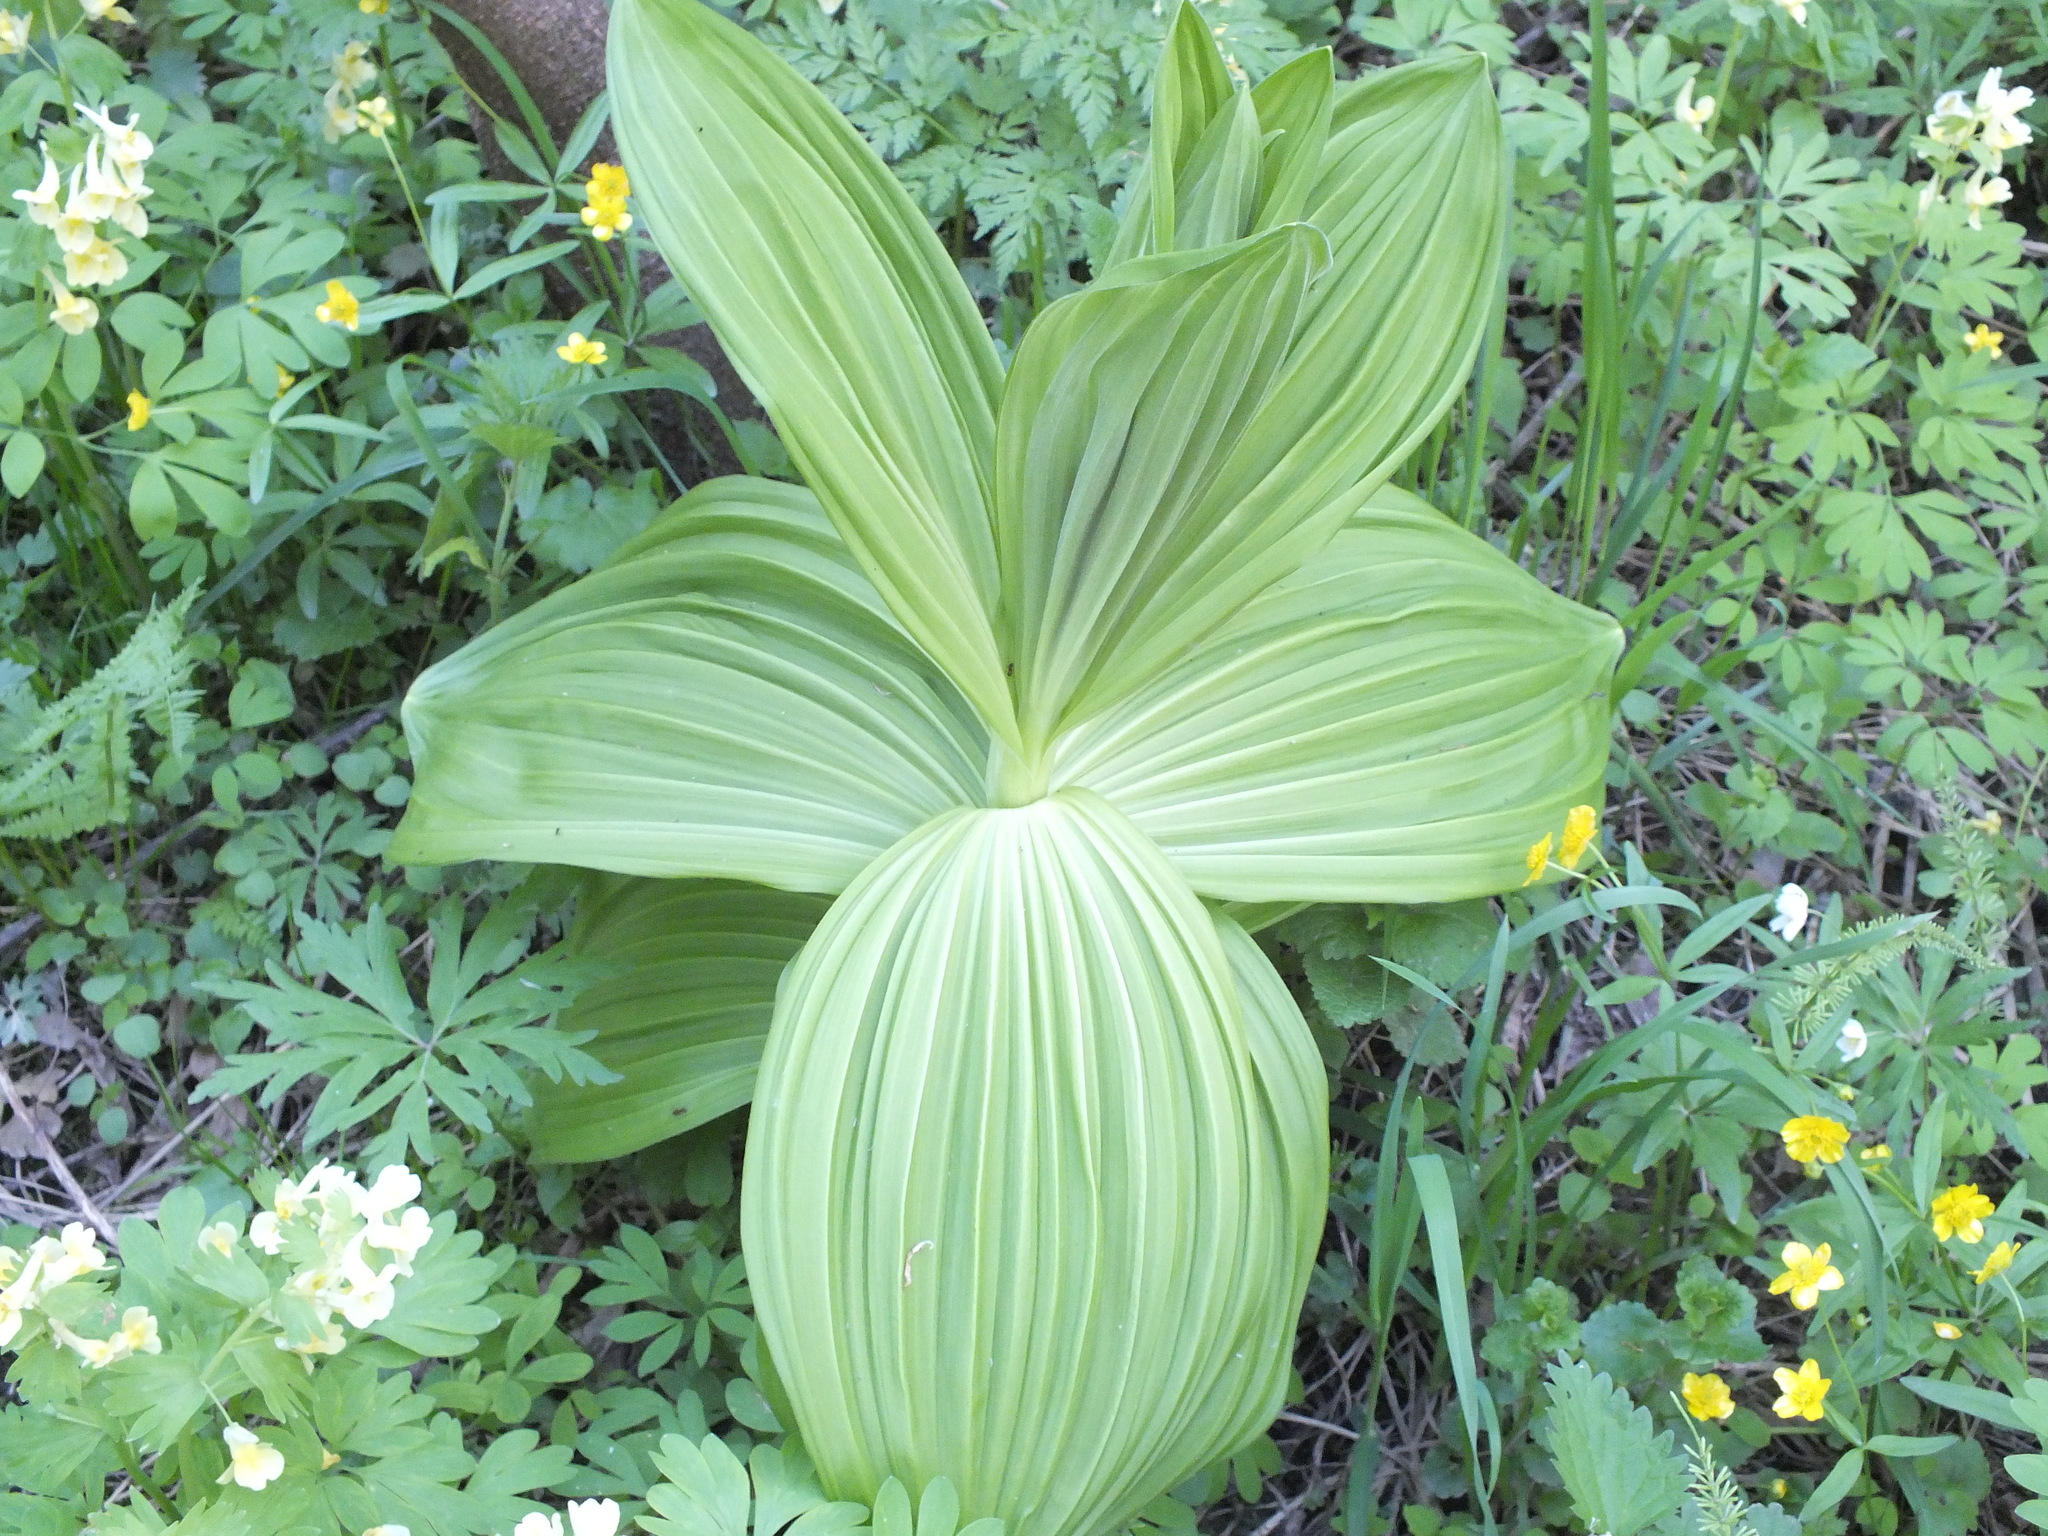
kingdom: Plantae
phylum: Tracheophyta
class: Liliopsida
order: Liliales
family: Melanthiaceae
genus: Veratrum
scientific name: Veratrum lobelianum
